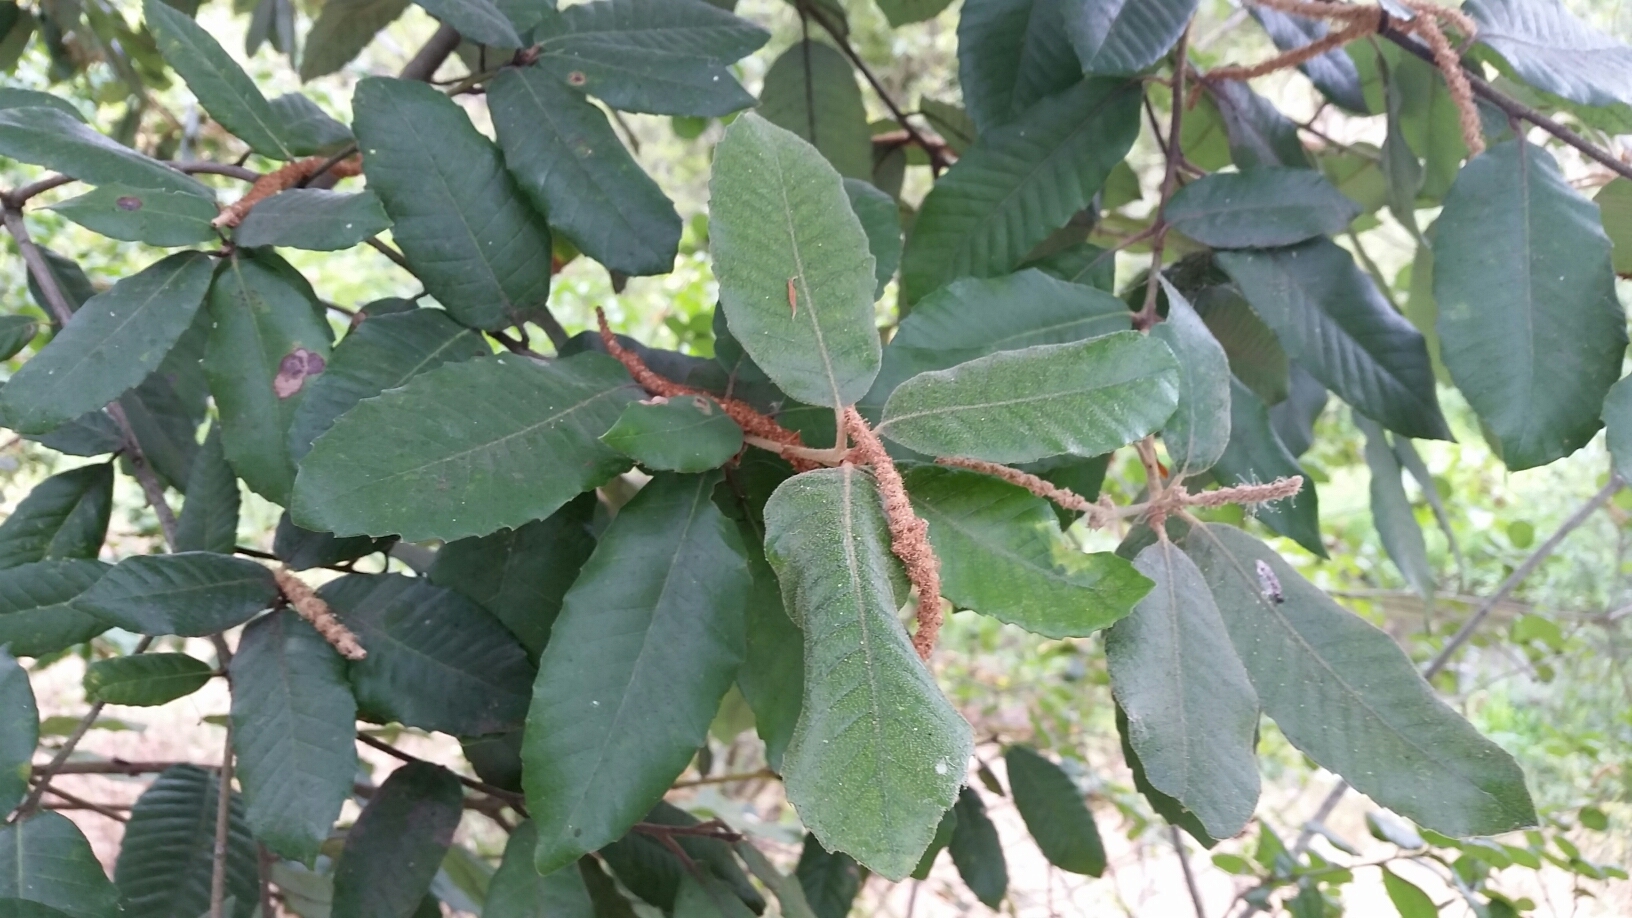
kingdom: Plantae
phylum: Tracheophyta
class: Magnoliopsida
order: Fagales
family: Fagaceae
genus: Notholithocarpus
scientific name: Notholithocarpus densiflorus
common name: Tan bark oak
